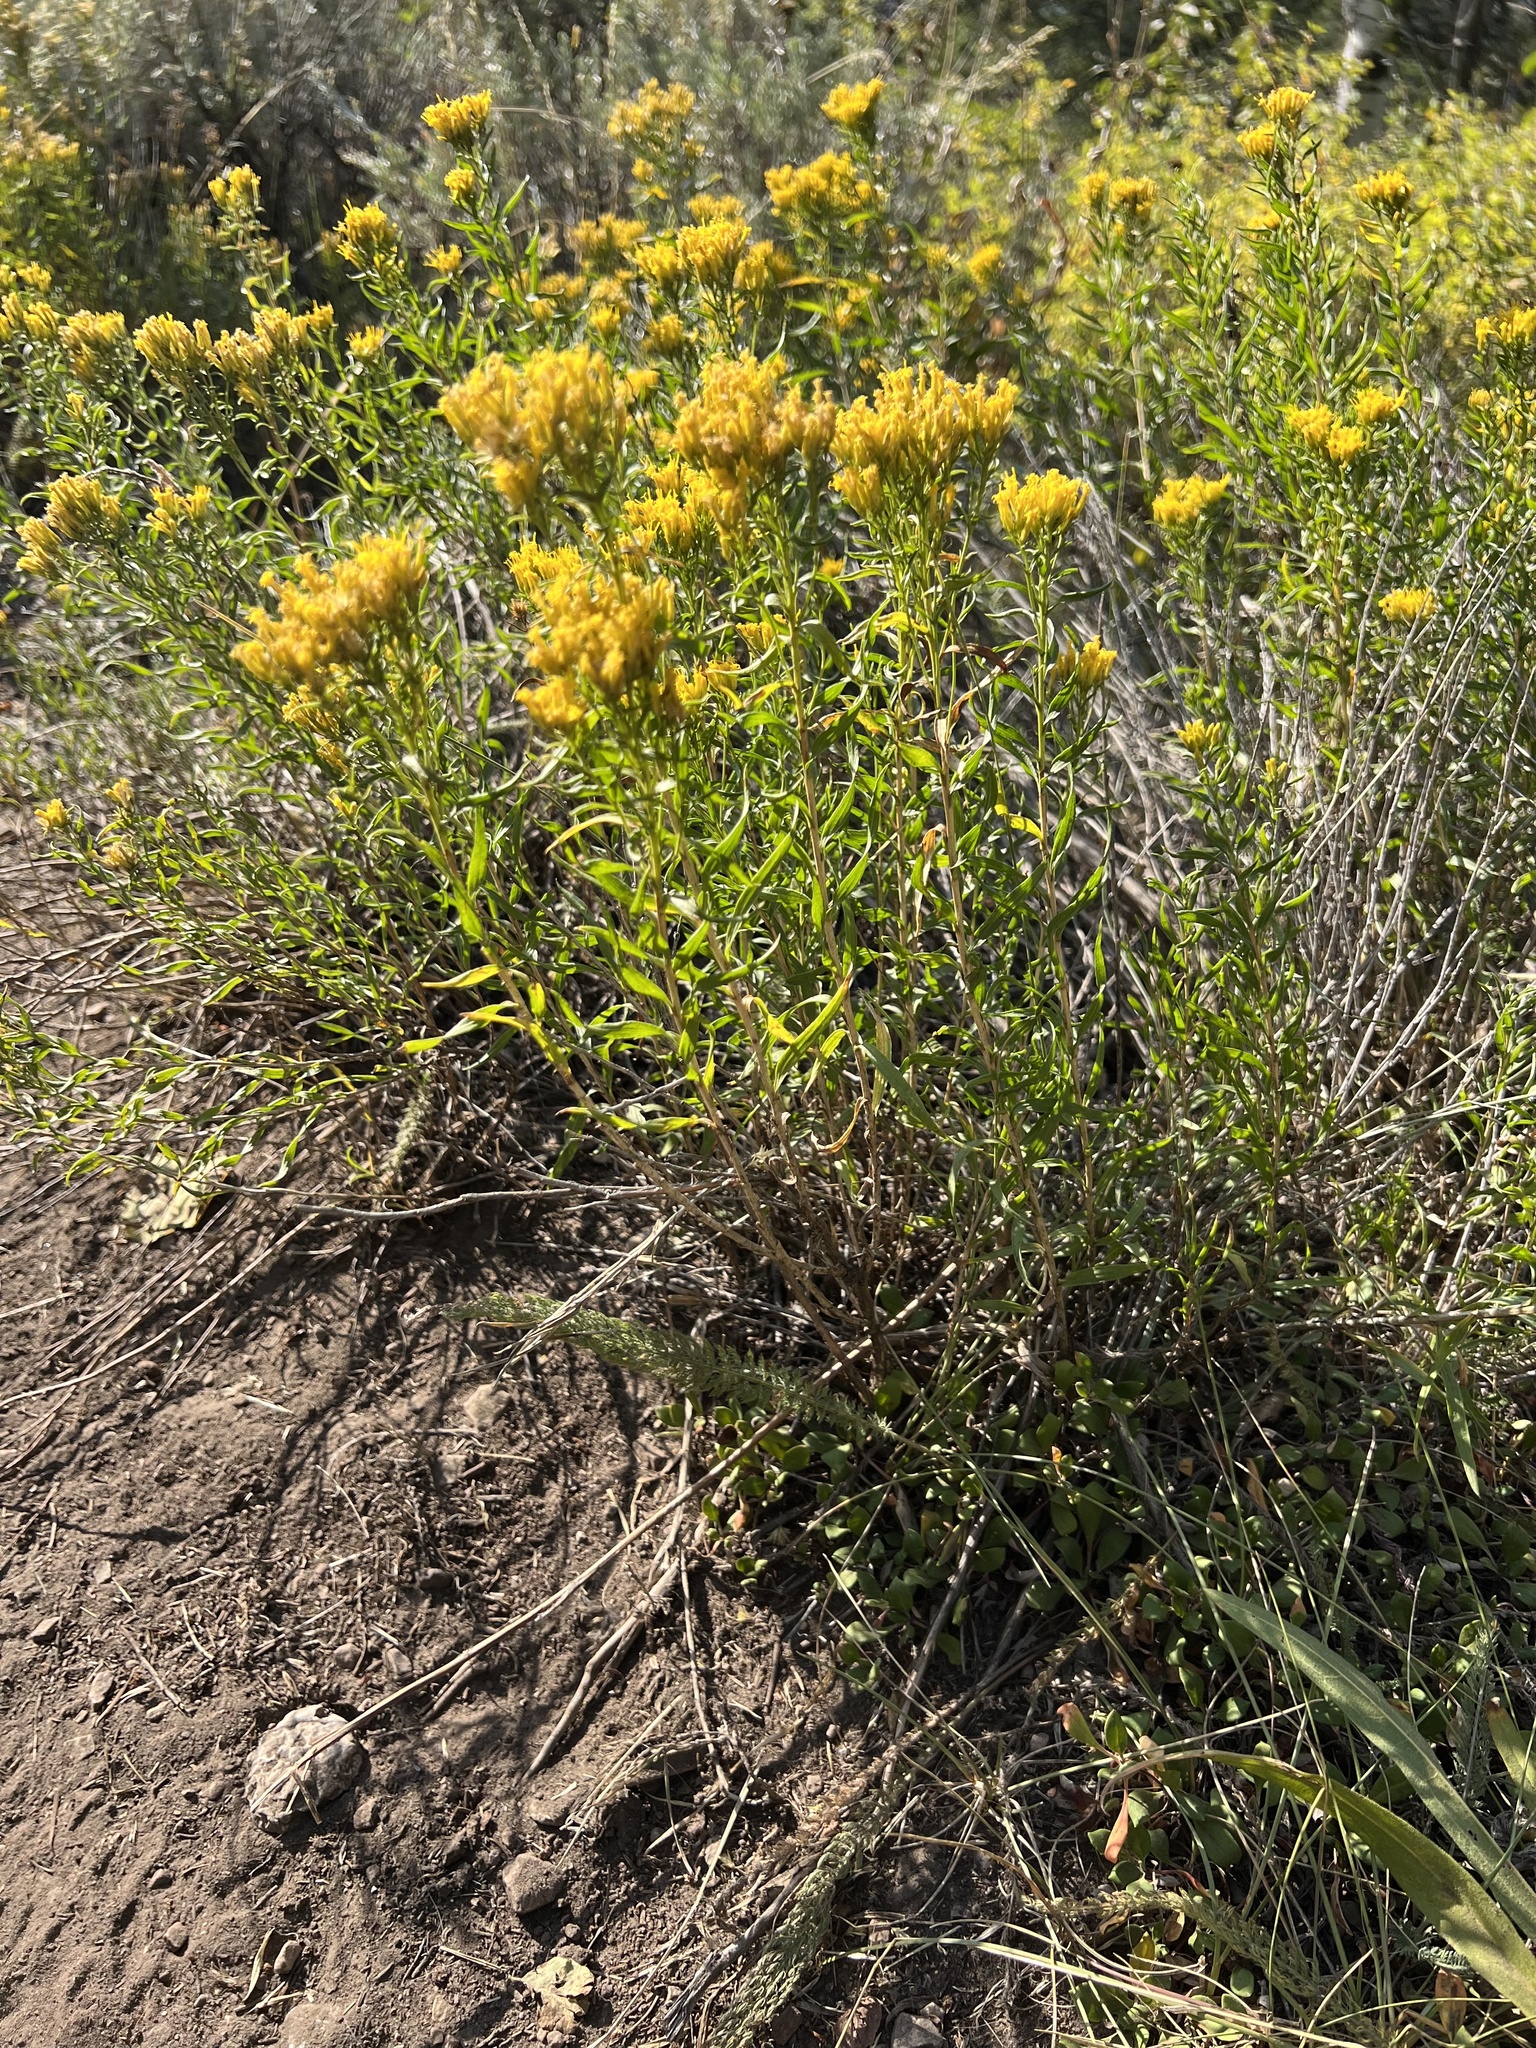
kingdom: Plantae
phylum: Tracheophyta
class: Magnoliopsida
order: Asterales
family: Asteraceae
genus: Chrysothamnus
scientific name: Chrysothamnus viscidiflorus
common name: Yellow rabbitbrush
